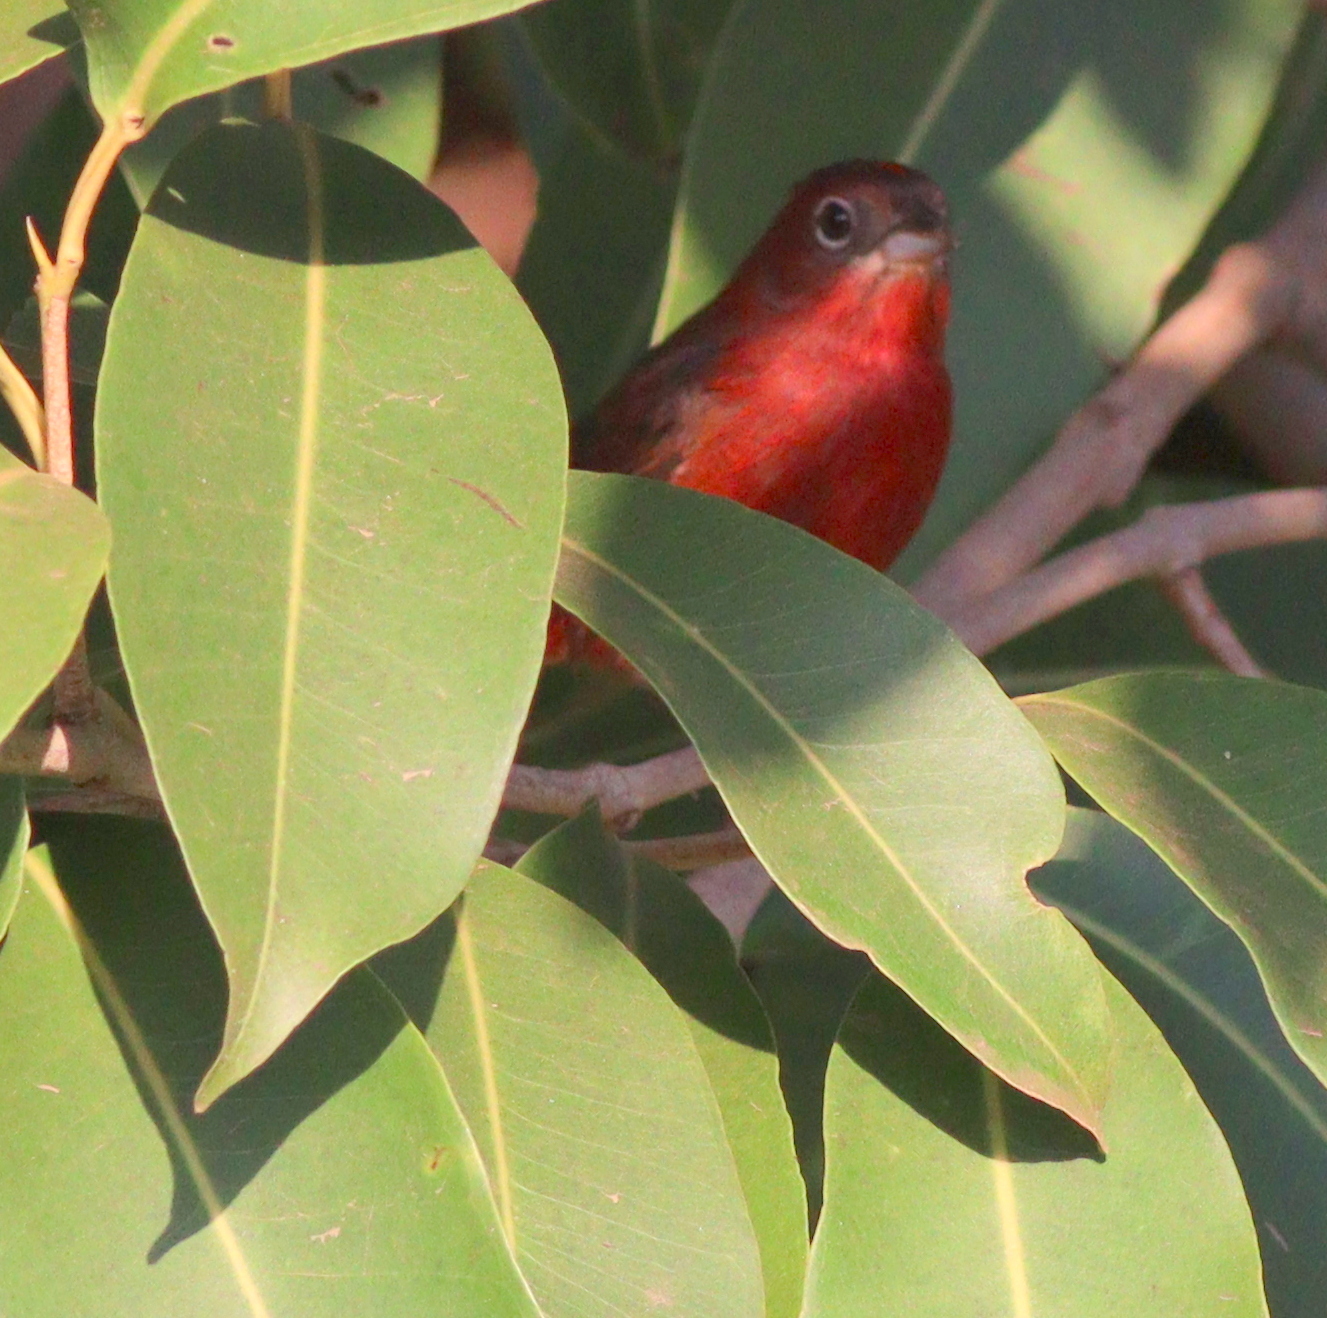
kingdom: Animalia
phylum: Chordata
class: Aves
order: Passeriformes
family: Thraupidae
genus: Coryphospingus
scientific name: Coryphospingus cucullatus
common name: Red pileated finch
